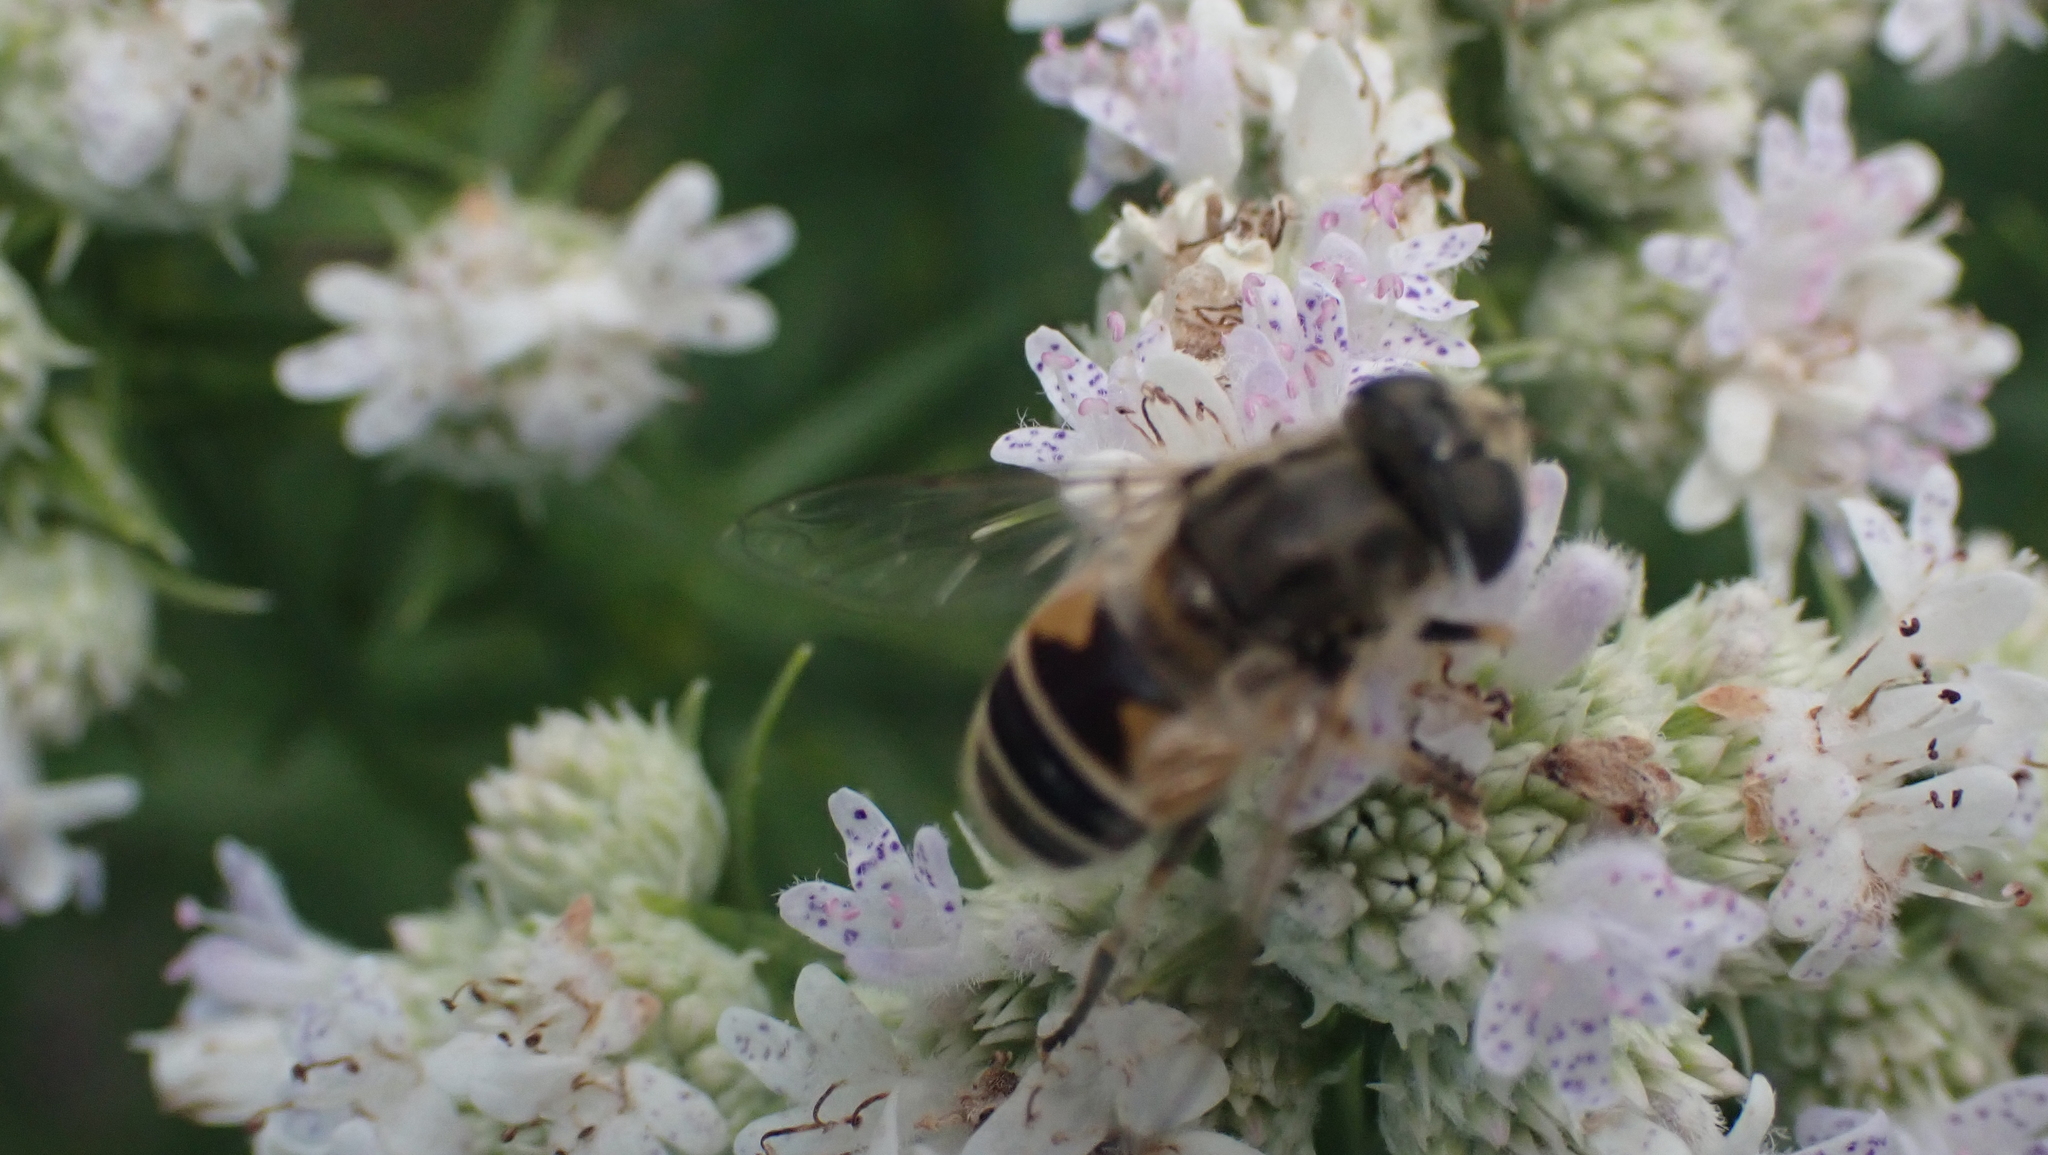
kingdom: Animalia
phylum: Arthropoda
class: Insecta
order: Diptera
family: Syrphidae
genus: Eristalis
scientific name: Eristalis arbustorum
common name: Hover fly
